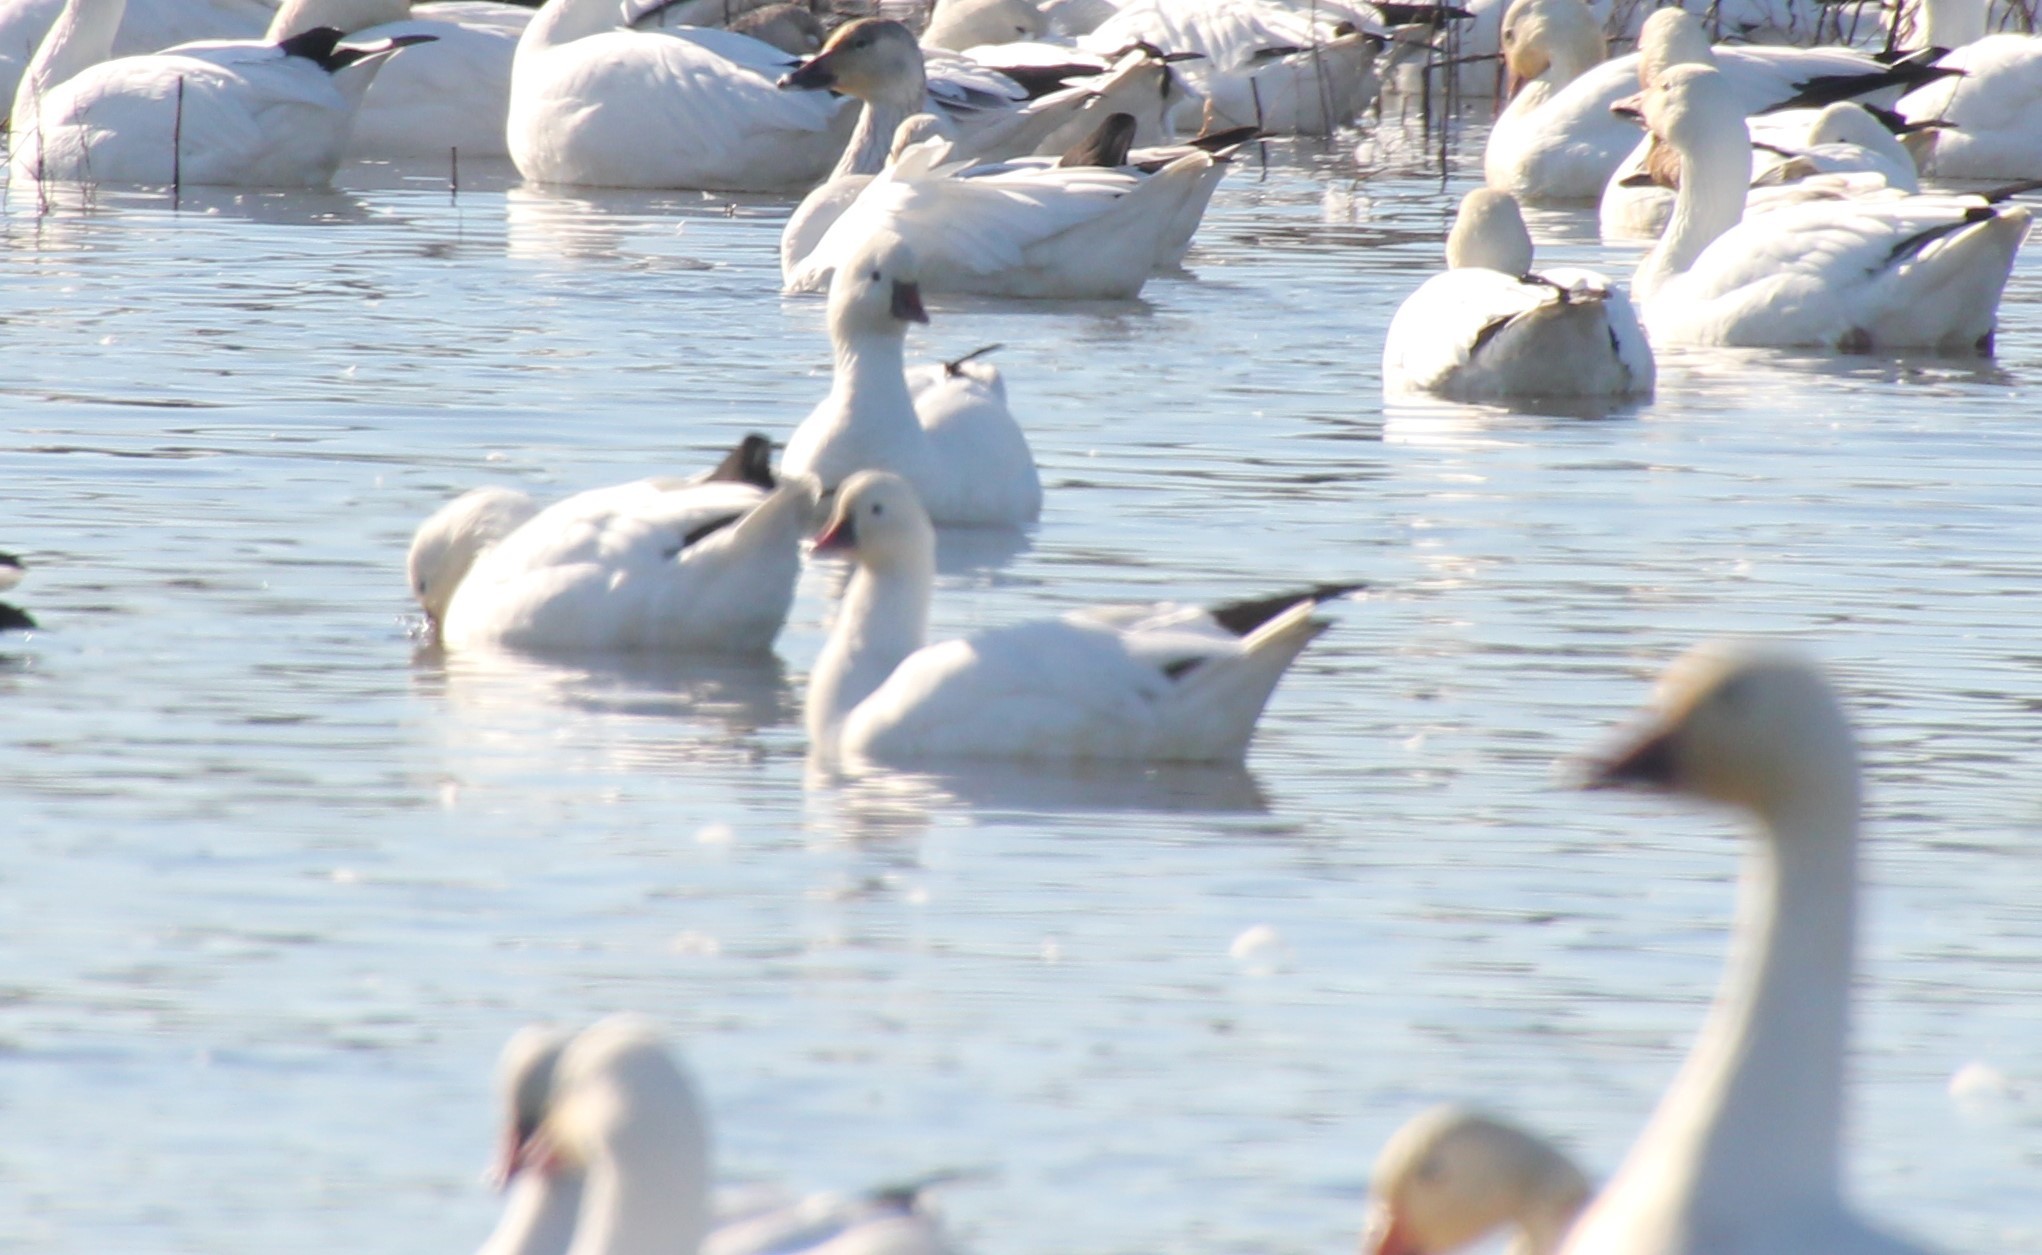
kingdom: Animalia
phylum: Chordata
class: Aves
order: Anseriformes
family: Anatidae
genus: Anser
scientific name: Anser rossii
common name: Ross's goose
